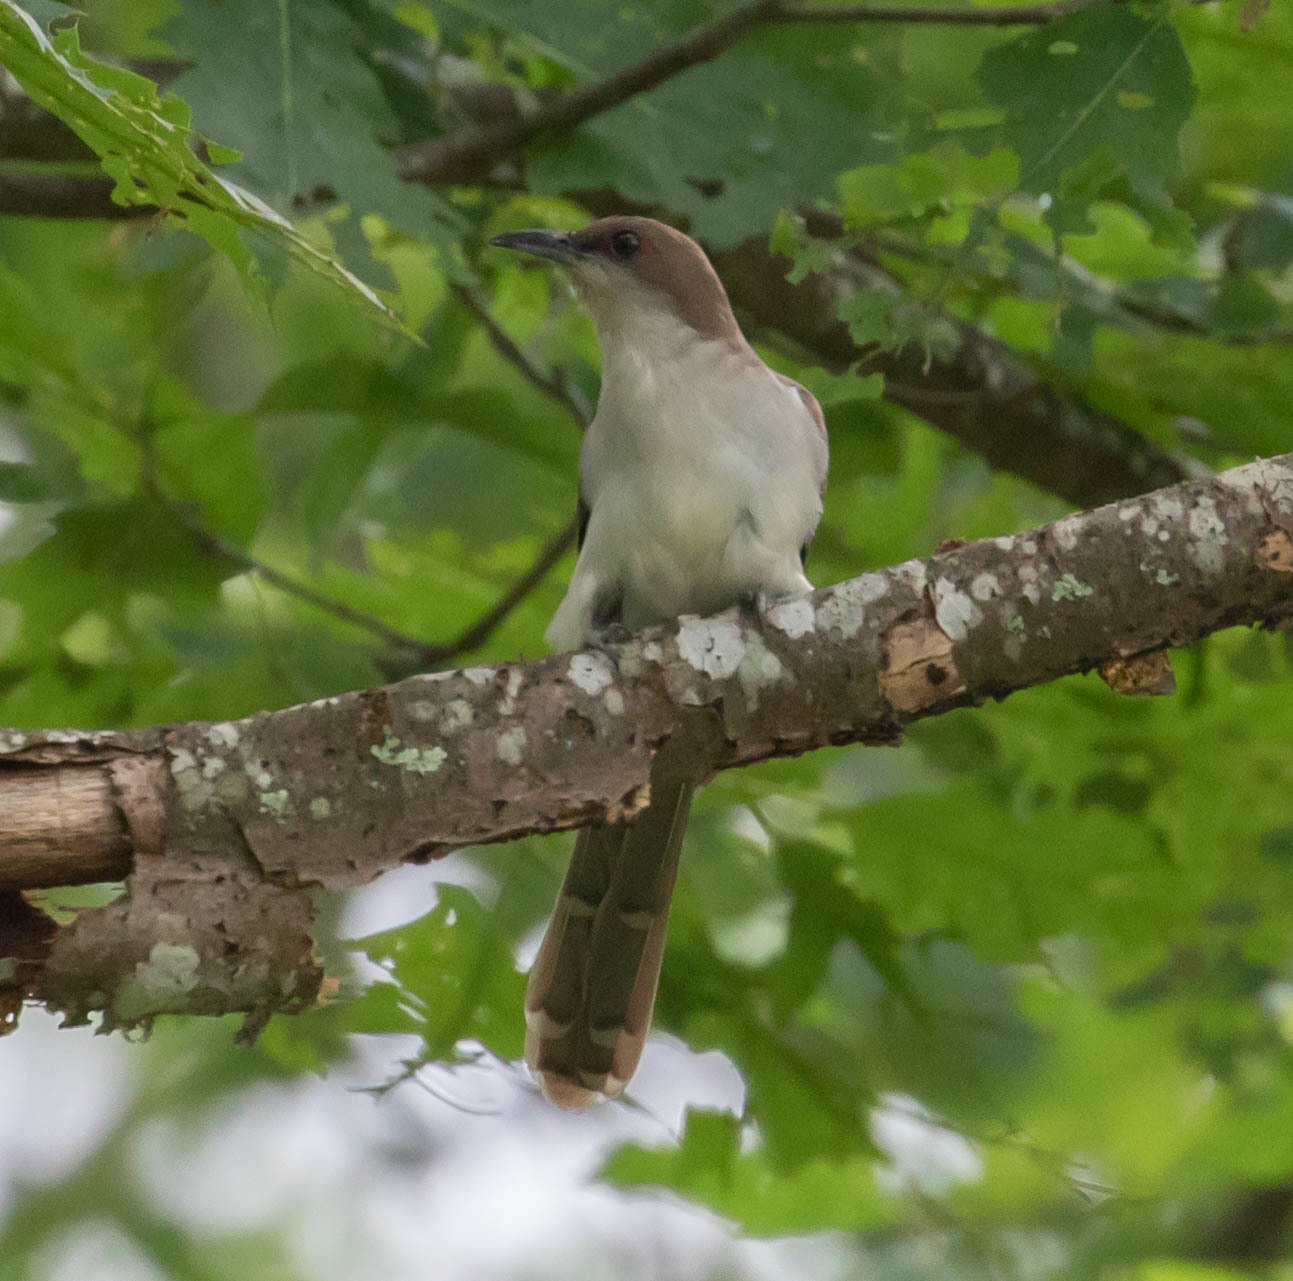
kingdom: Animalia
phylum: Chordata
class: Aves
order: Cuculiformes
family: Cuculidae
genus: Coccyzus
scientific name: Coccyzus erythropthalmus
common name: Black-billed cuckoo
